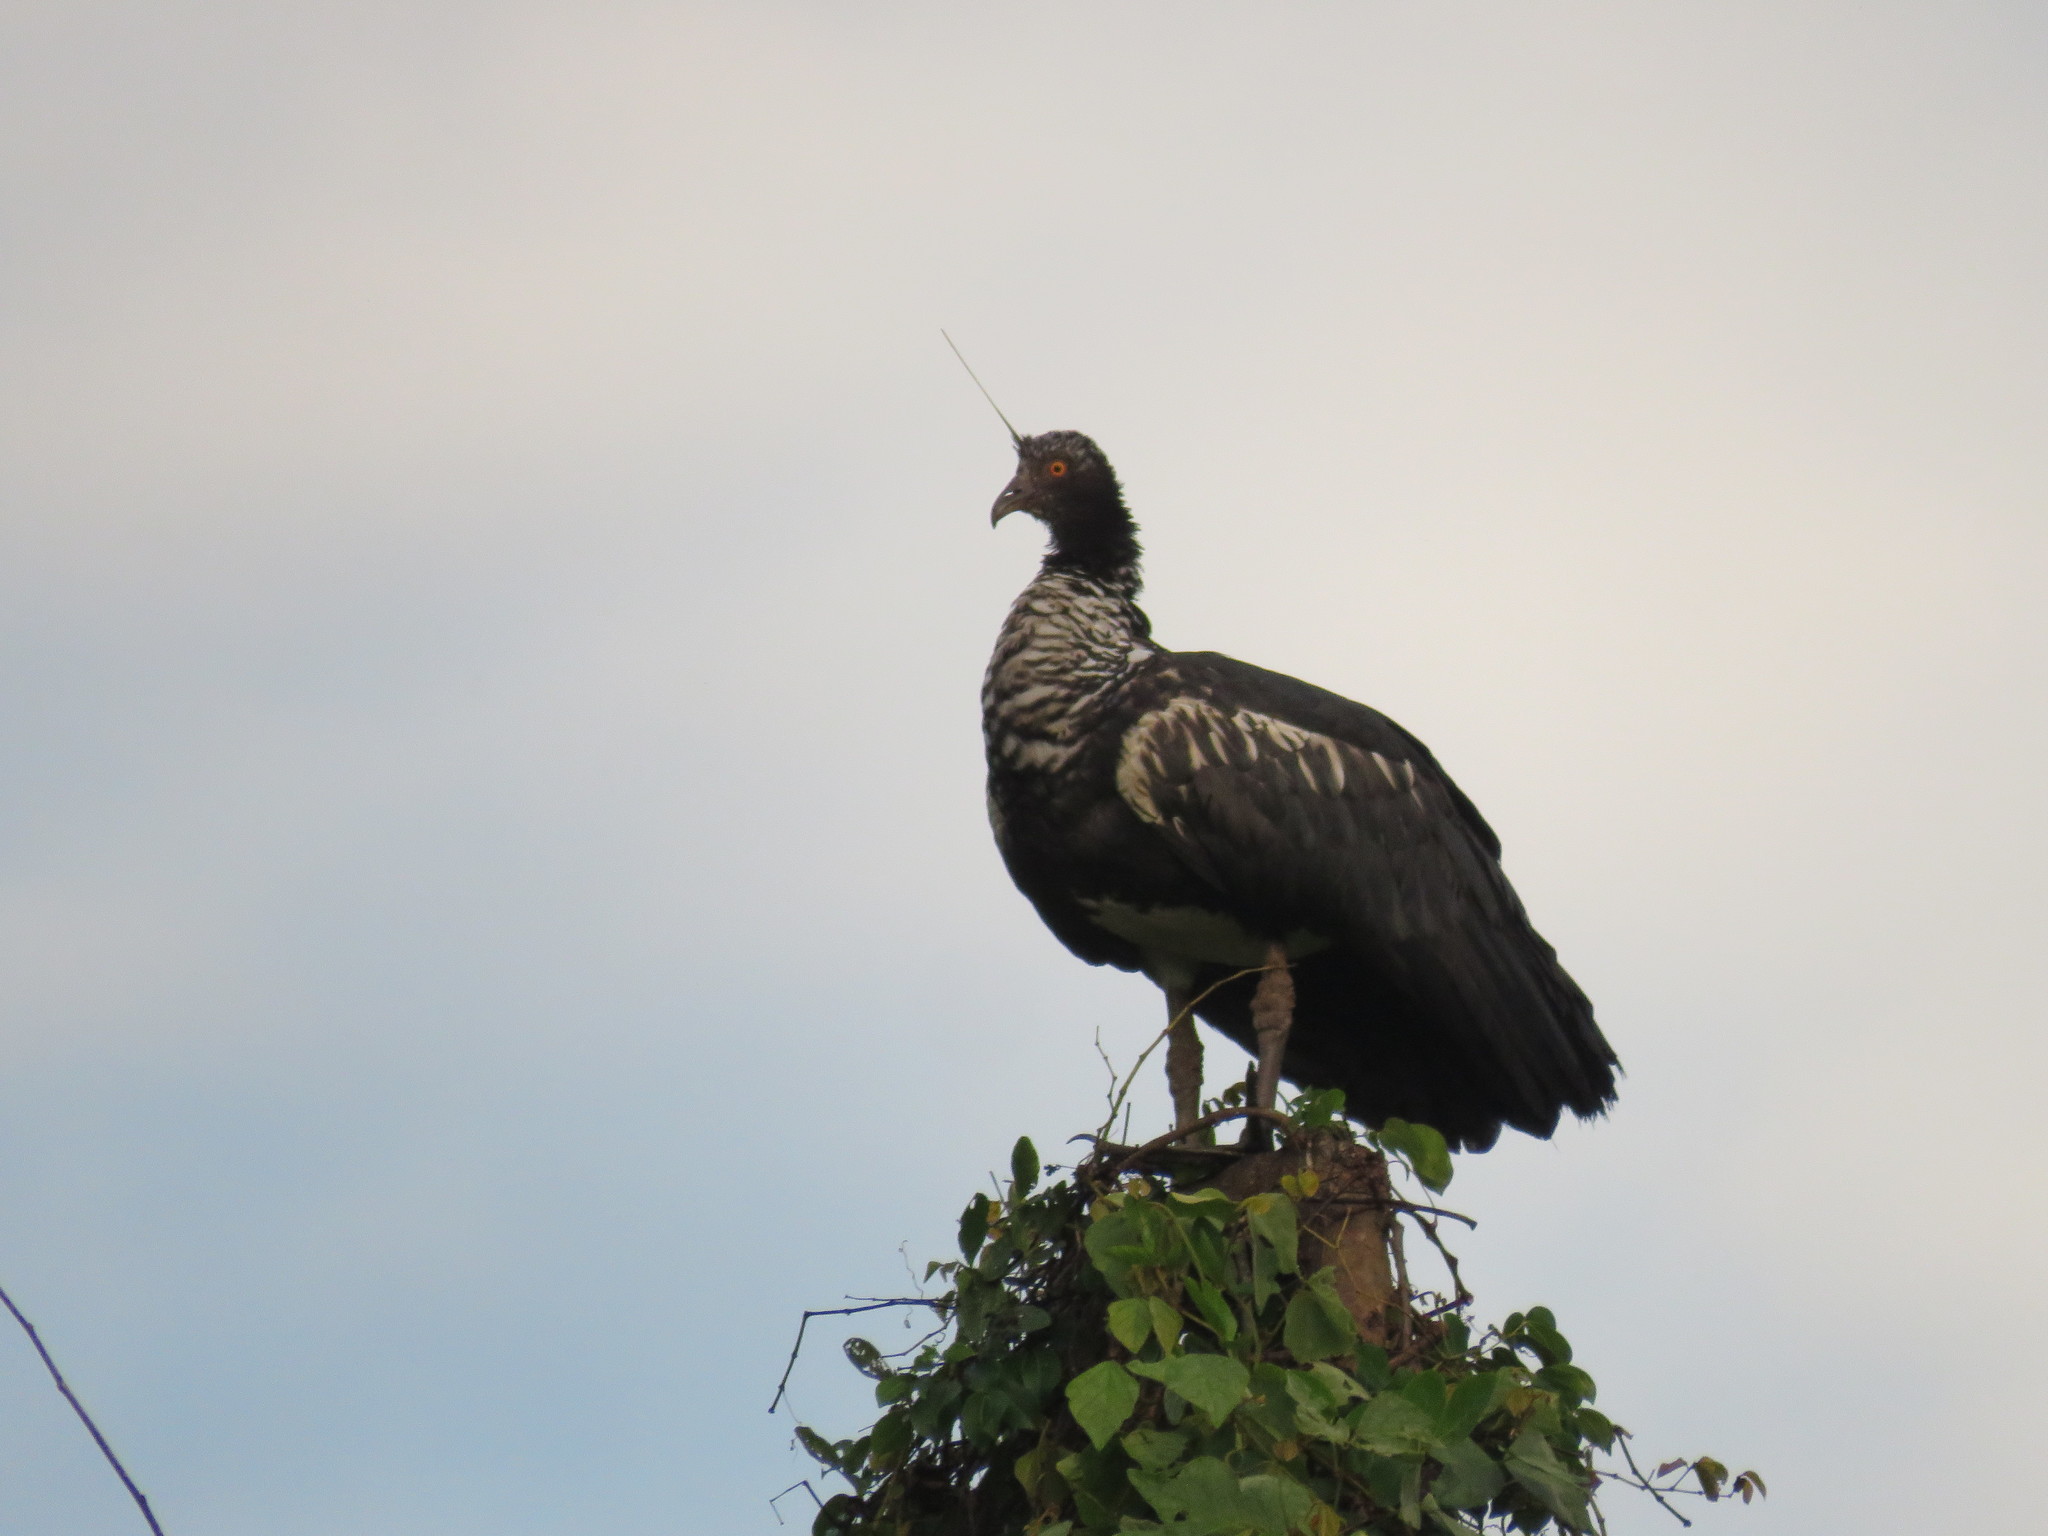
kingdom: Animalia
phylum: Chordata
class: Aves
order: Anseriformes
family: Anhimidae
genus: Anhima
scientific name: Anhima cornuta
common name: Horned screamer
